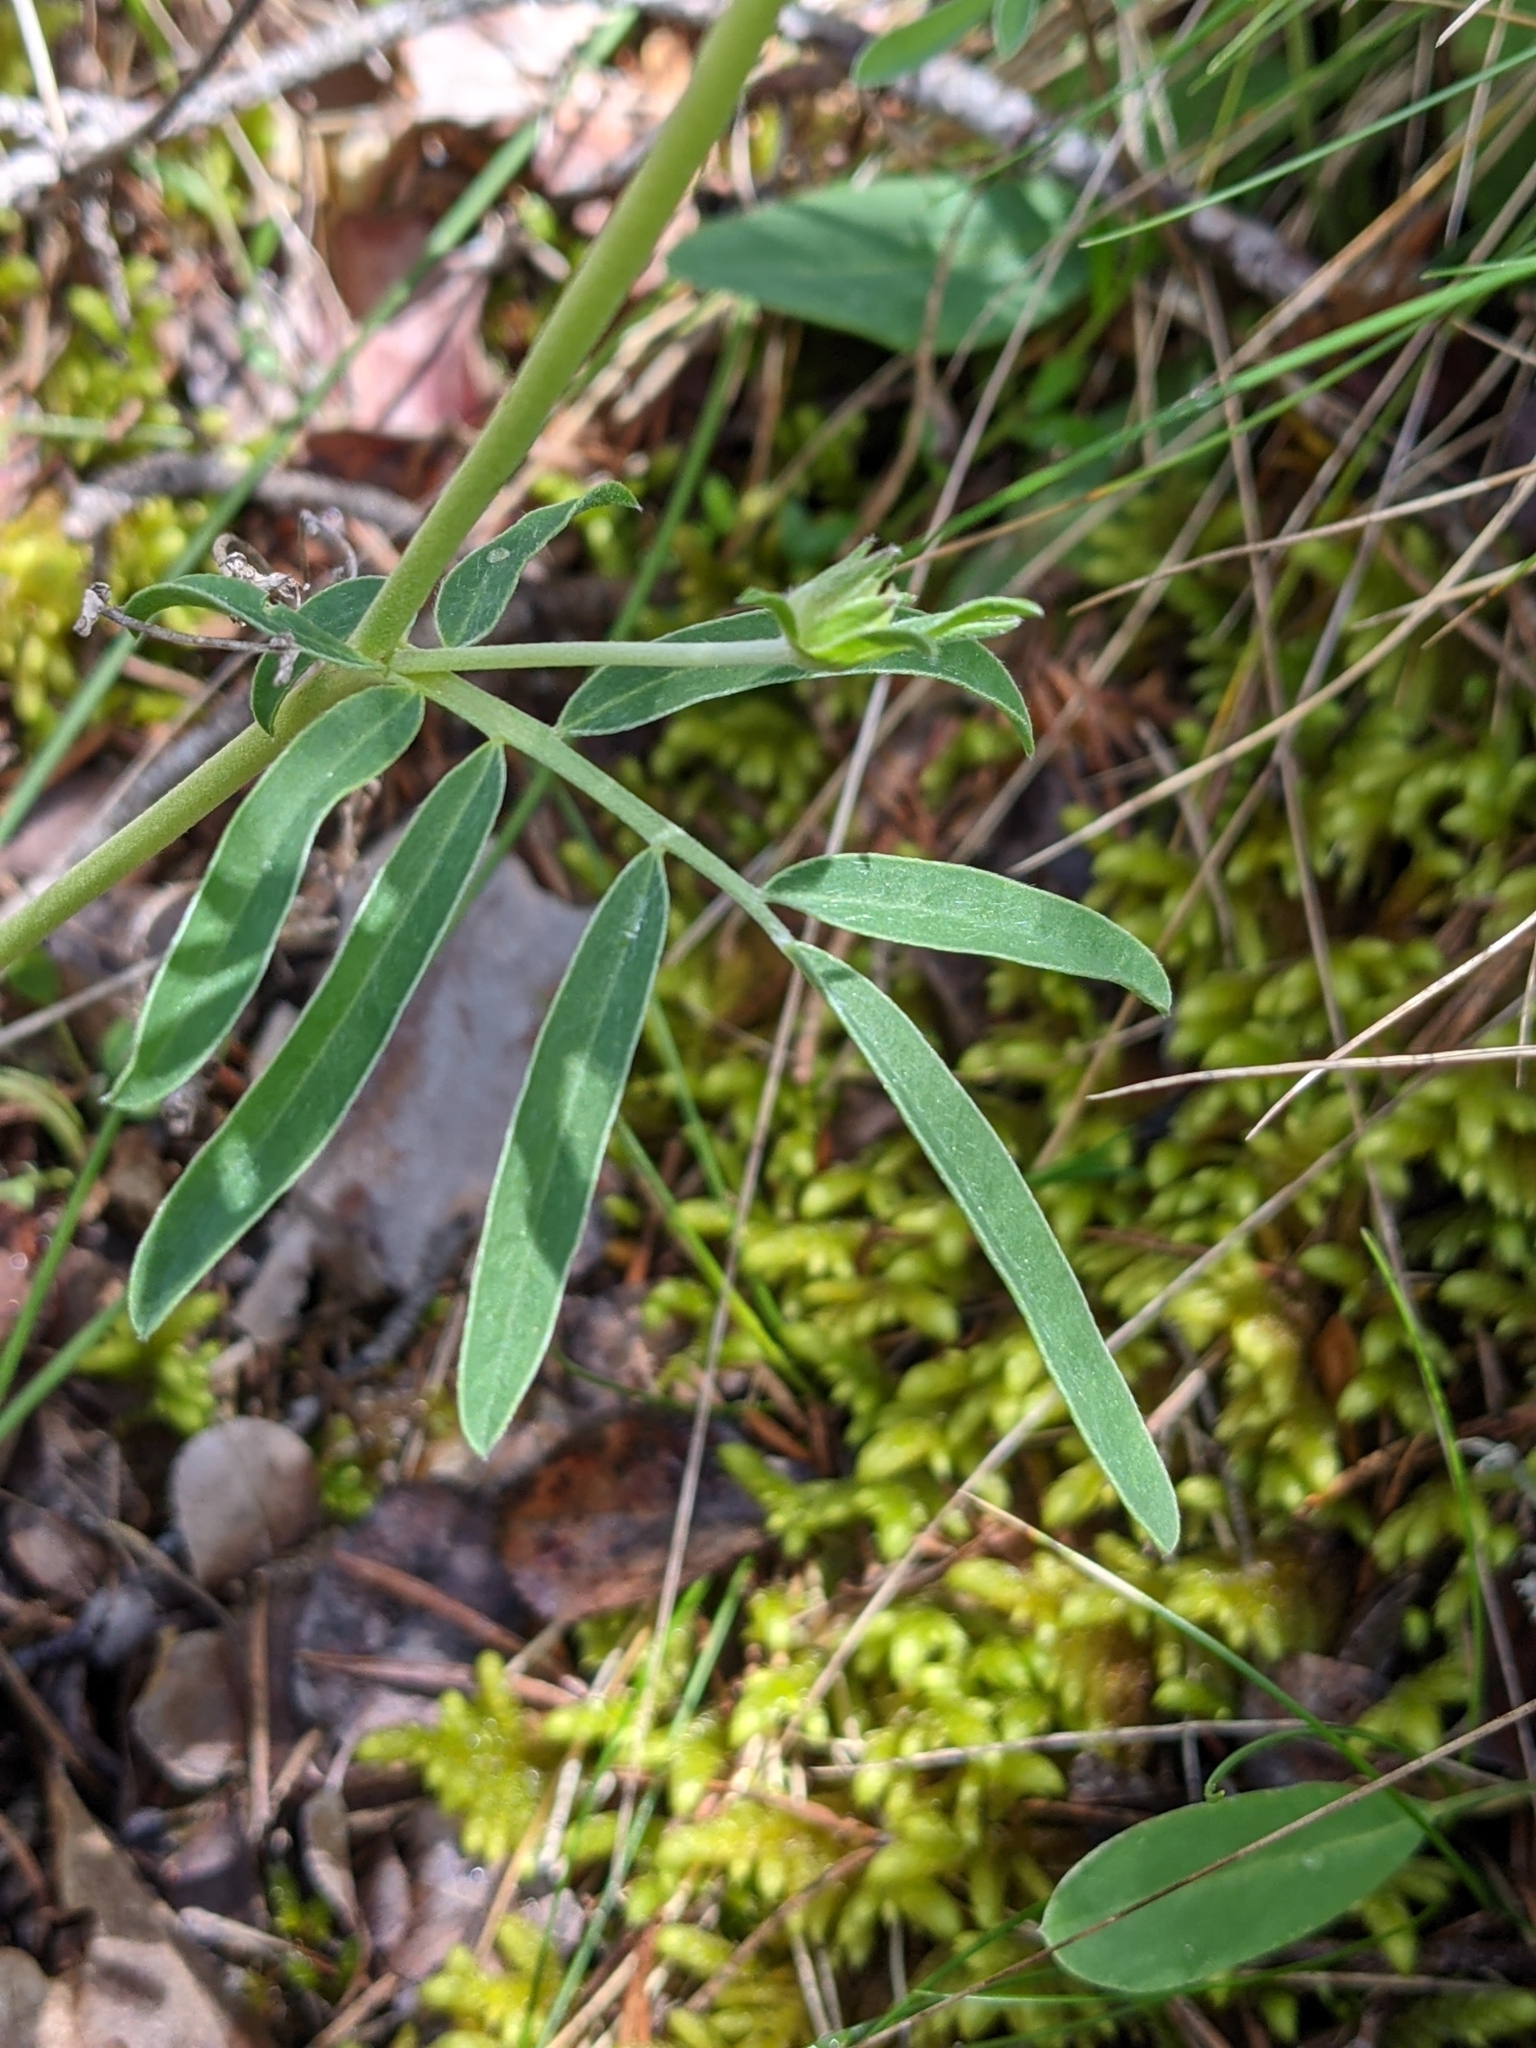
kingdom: Plantae
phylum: Tracheophyta
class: Magnoliopsida
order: Fabales
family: Fabaceae
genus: Anthyllis
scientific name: Anthyllis vulneraria
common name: Kidney vetch
